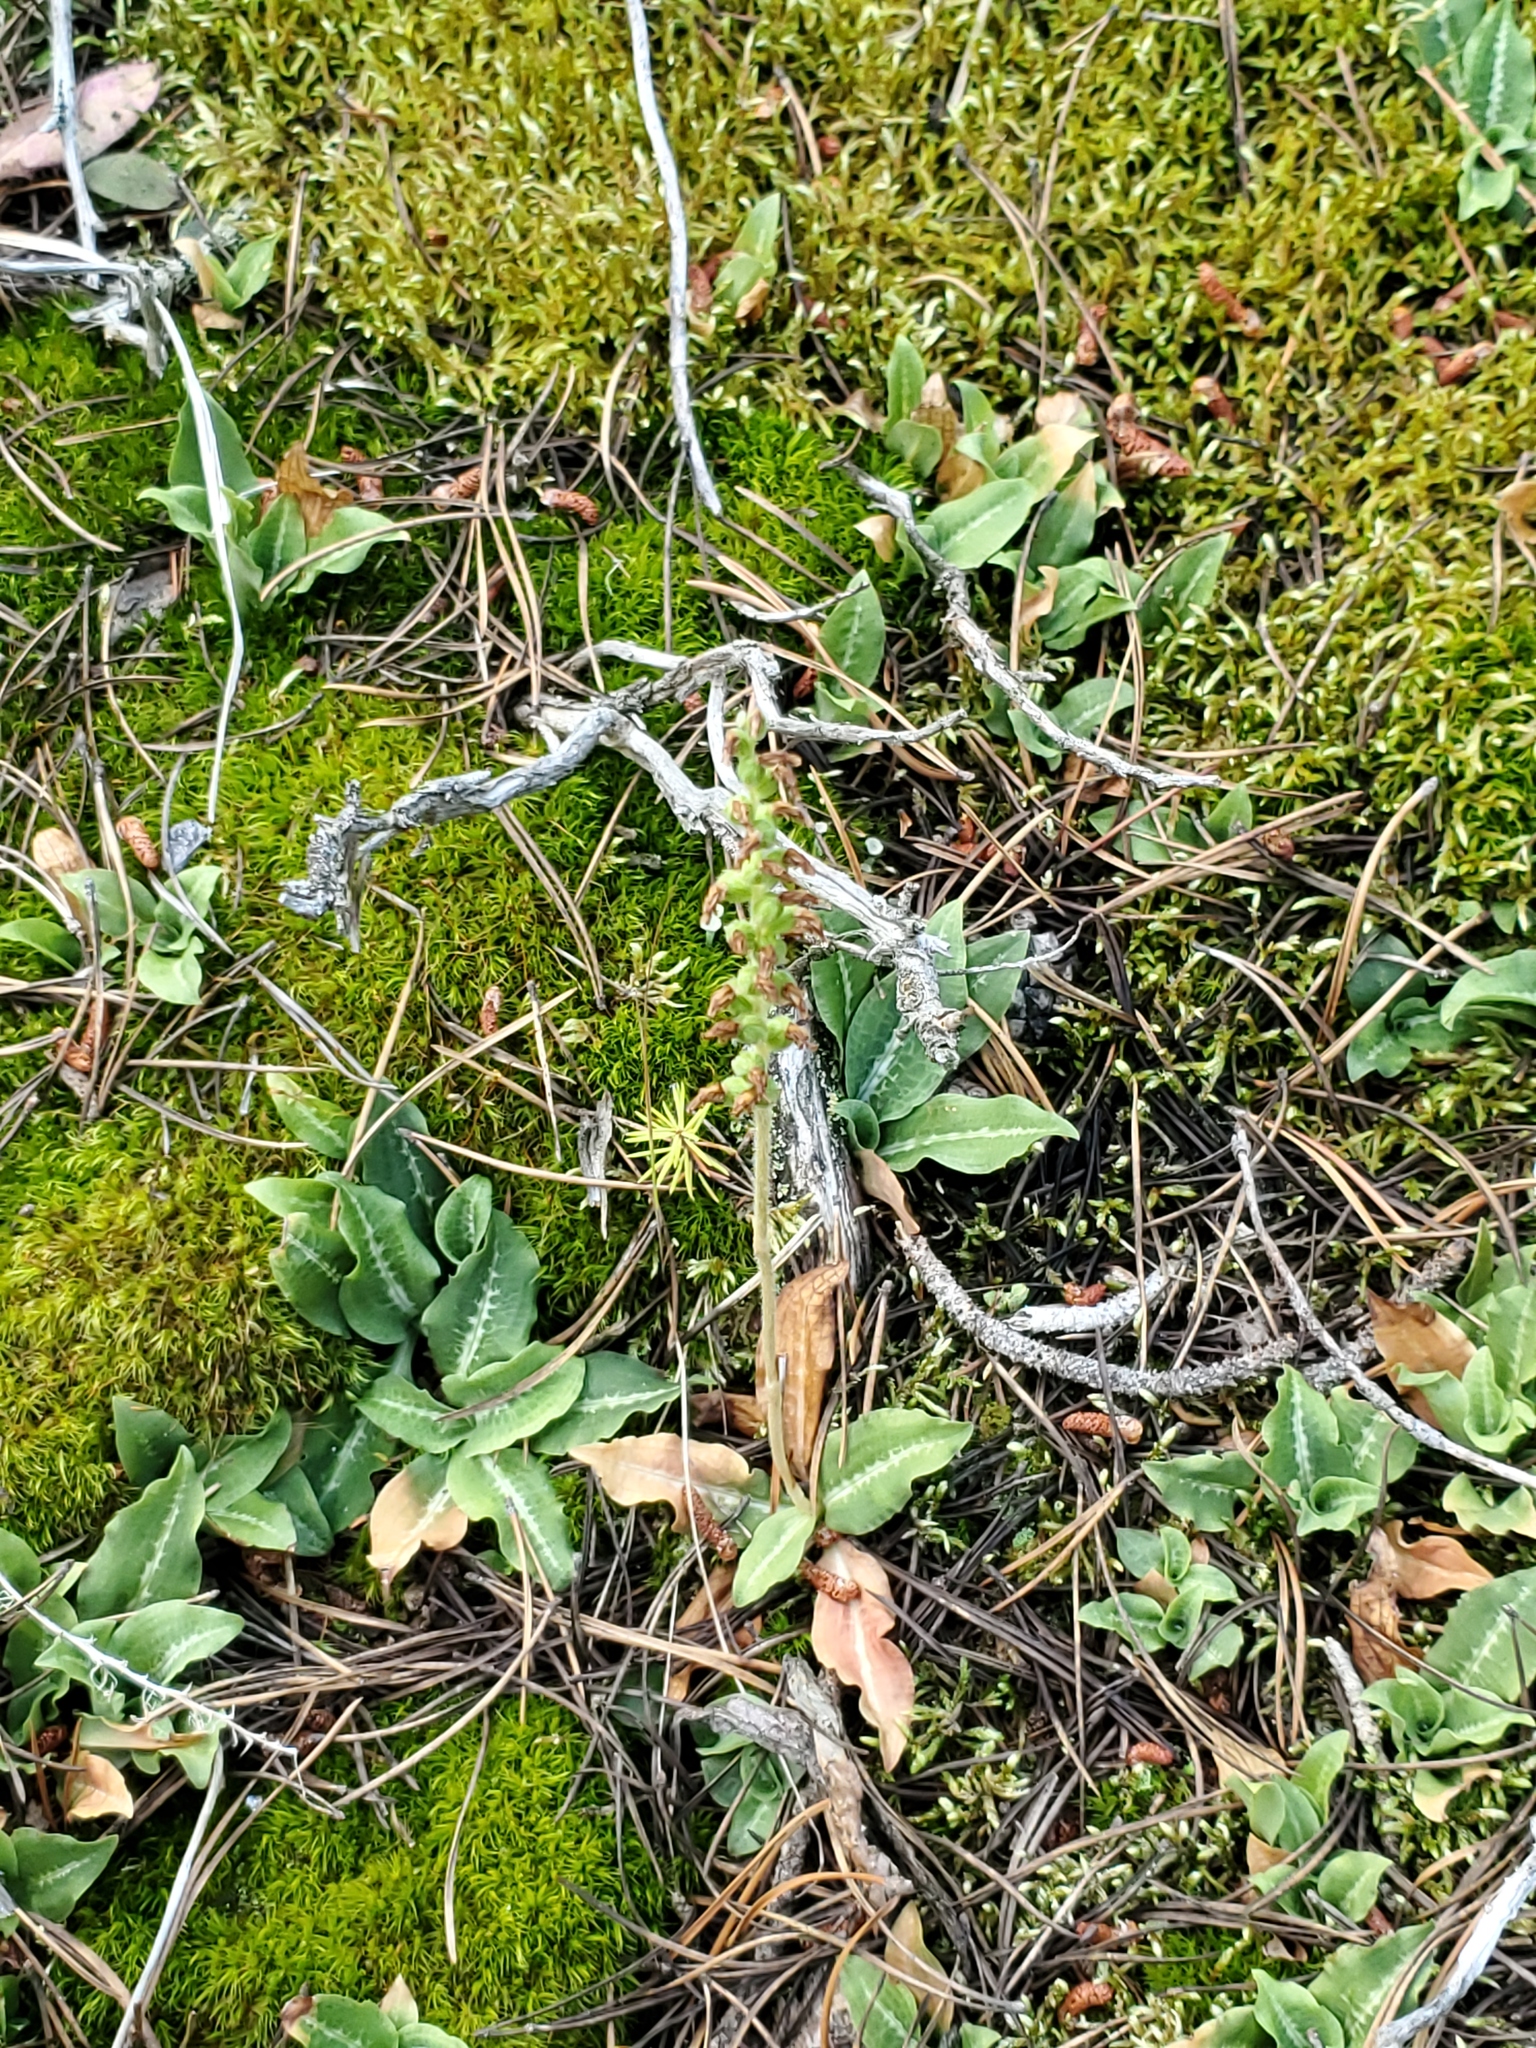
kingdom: Plantae
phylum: Tracheophyta
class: Liliopsida
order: Asparagales
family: Orchidaceae
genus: Goodyera
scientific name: Goodyera oblongifolia
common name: Giant rattlesnake-plantain
